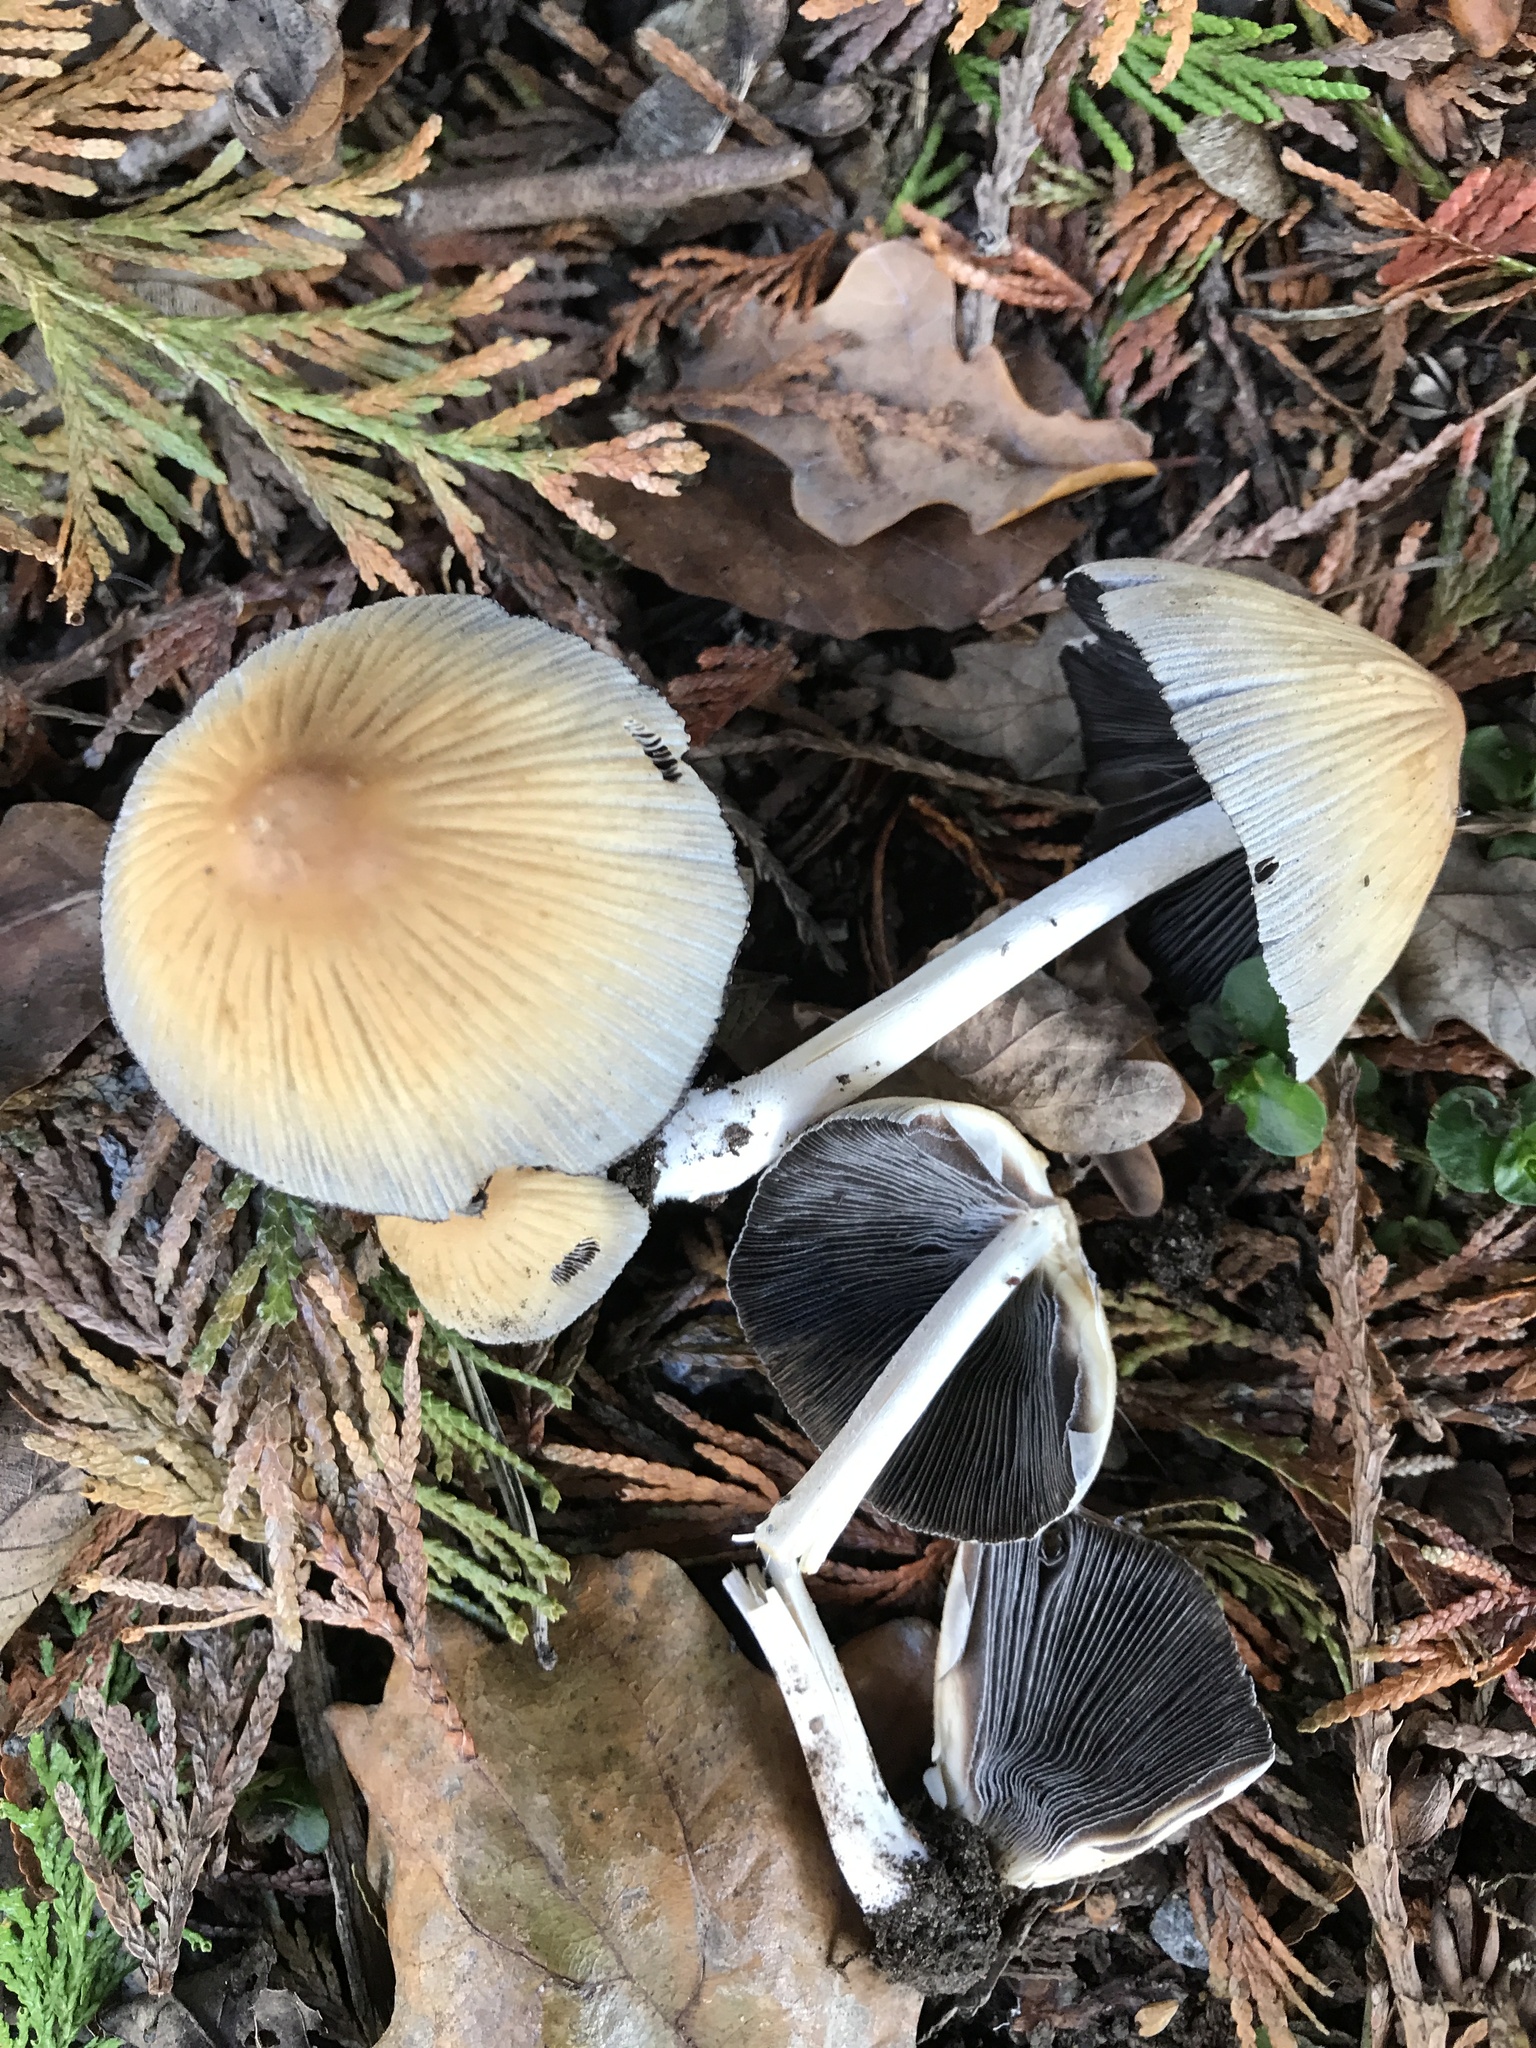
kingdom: Fungi
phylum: Basidiomycota
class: Agaricomycetes
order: Agaricales
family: Psathyrellaceae
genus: Coprinellus
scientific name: Coprinellus micaceus
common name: Glistening ink-cap
